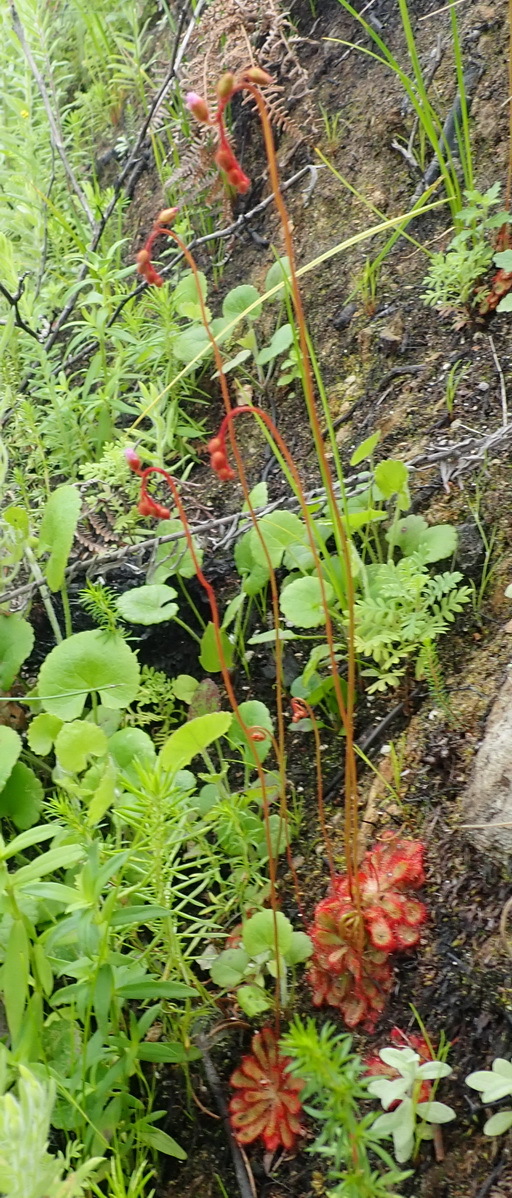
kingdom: Plantae
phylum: Tracheophyta
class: Magnoliopsida
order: Caryophyllales
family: Droseraceae
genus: Drosera
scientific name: Drosera aliciae
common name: Alice sundew
